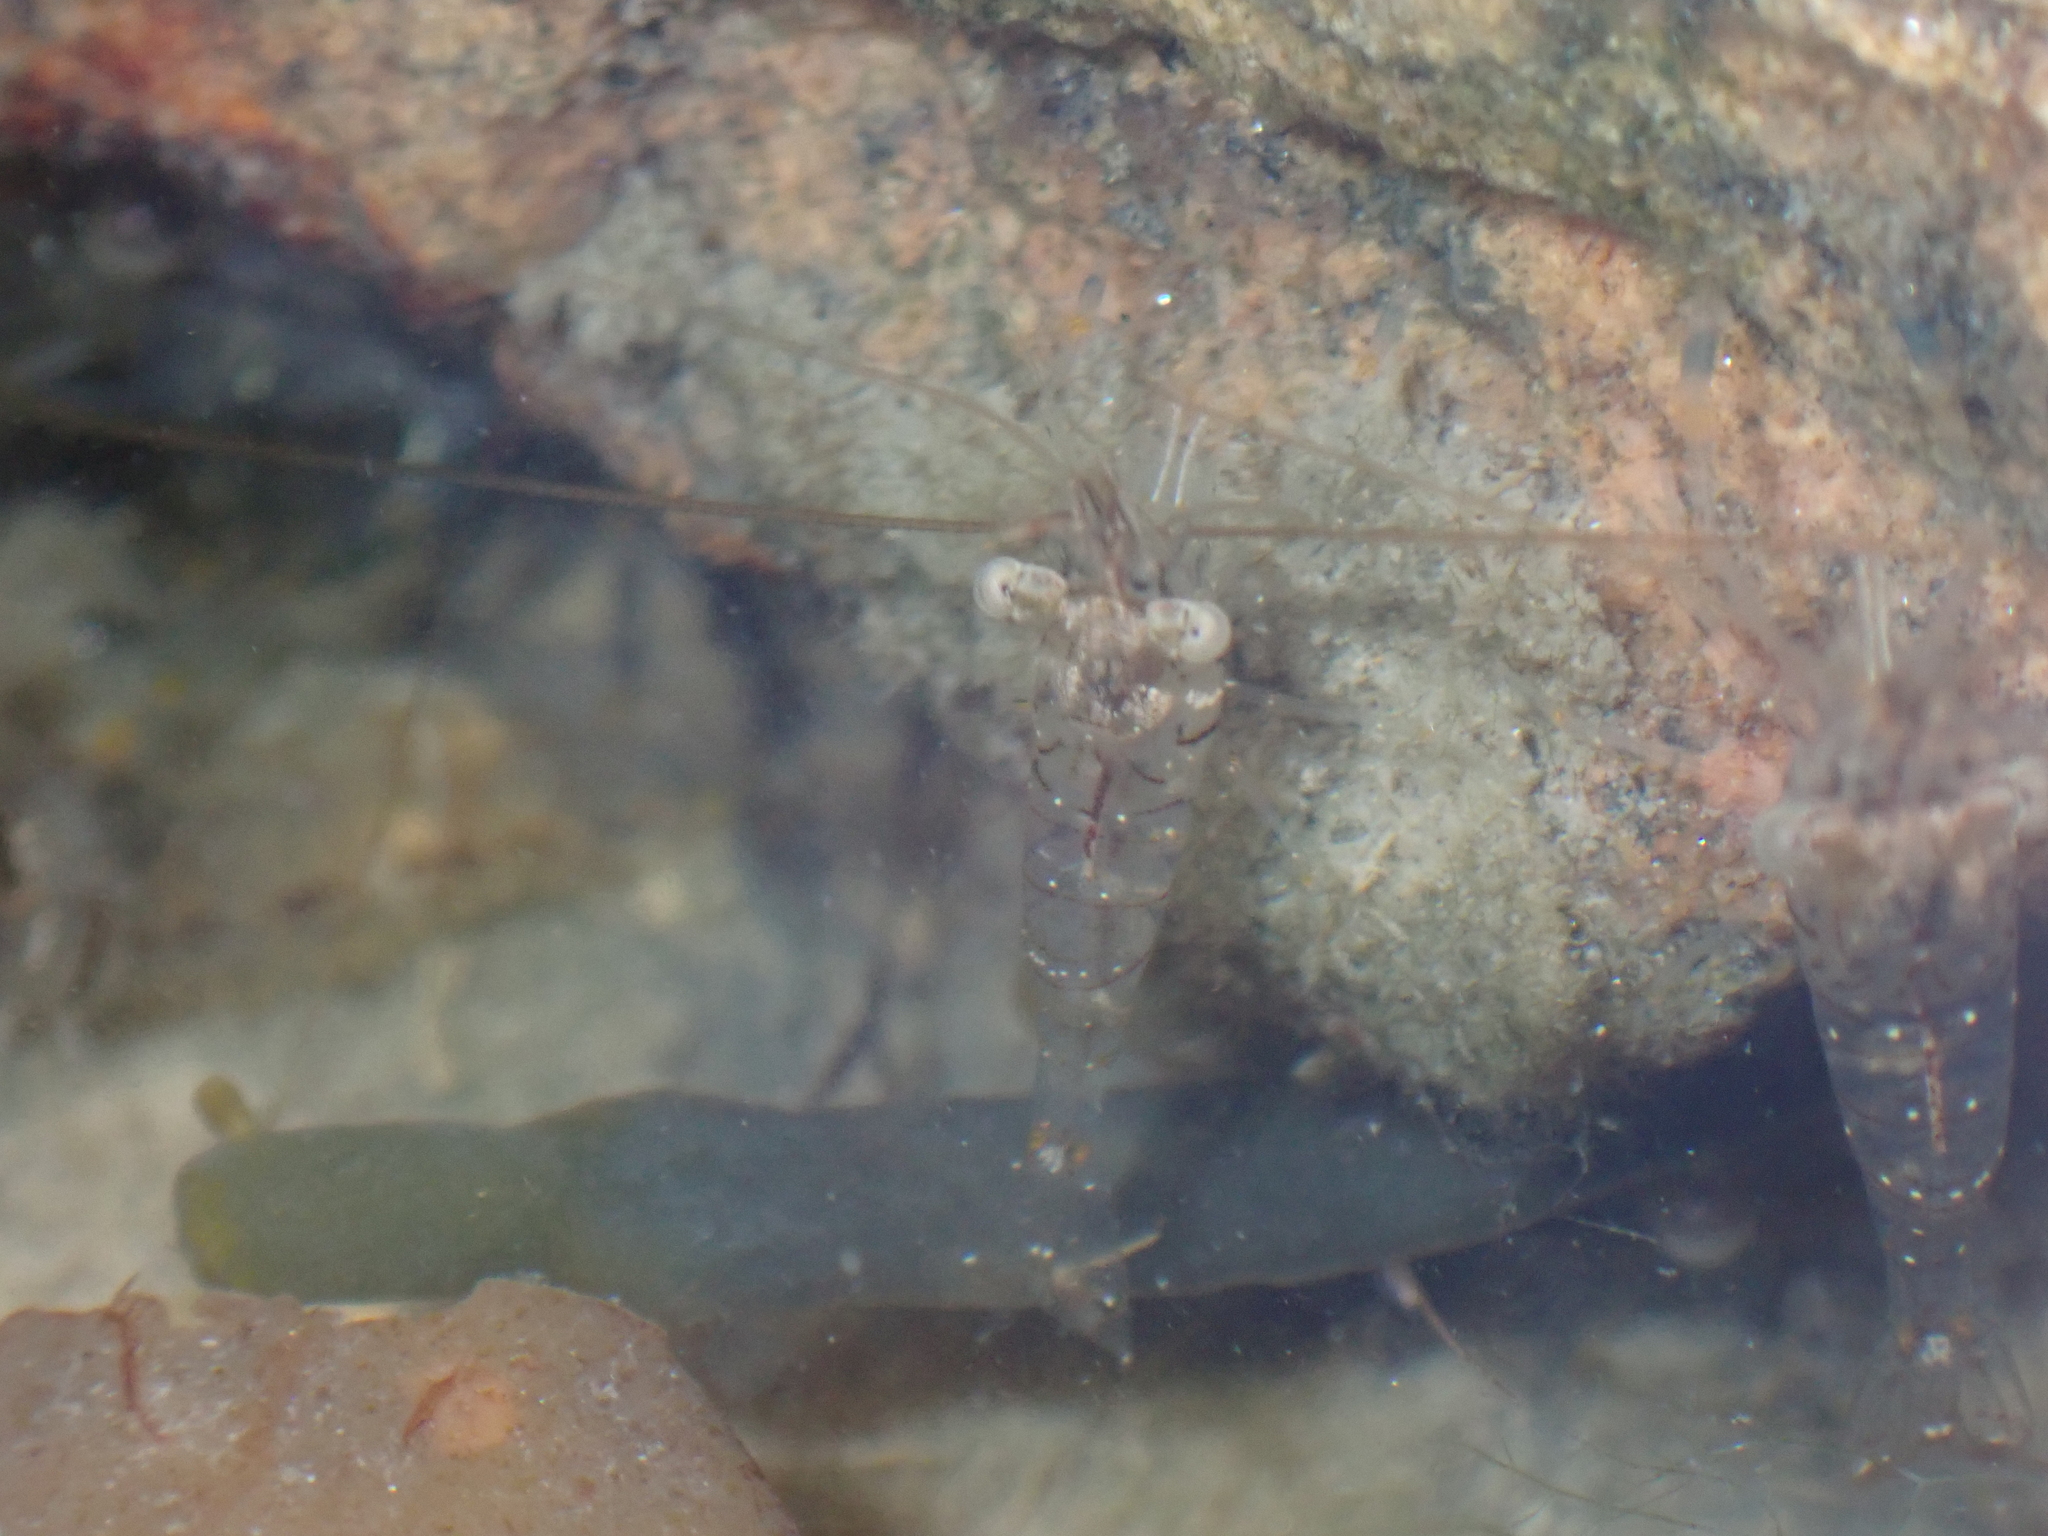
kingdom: Animalia
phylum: Arthropoda
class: Malacostraca
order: Decapoda
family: Palaemonidae
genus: Palaemon
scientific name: Palaemon elegans
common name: Grass prawm
